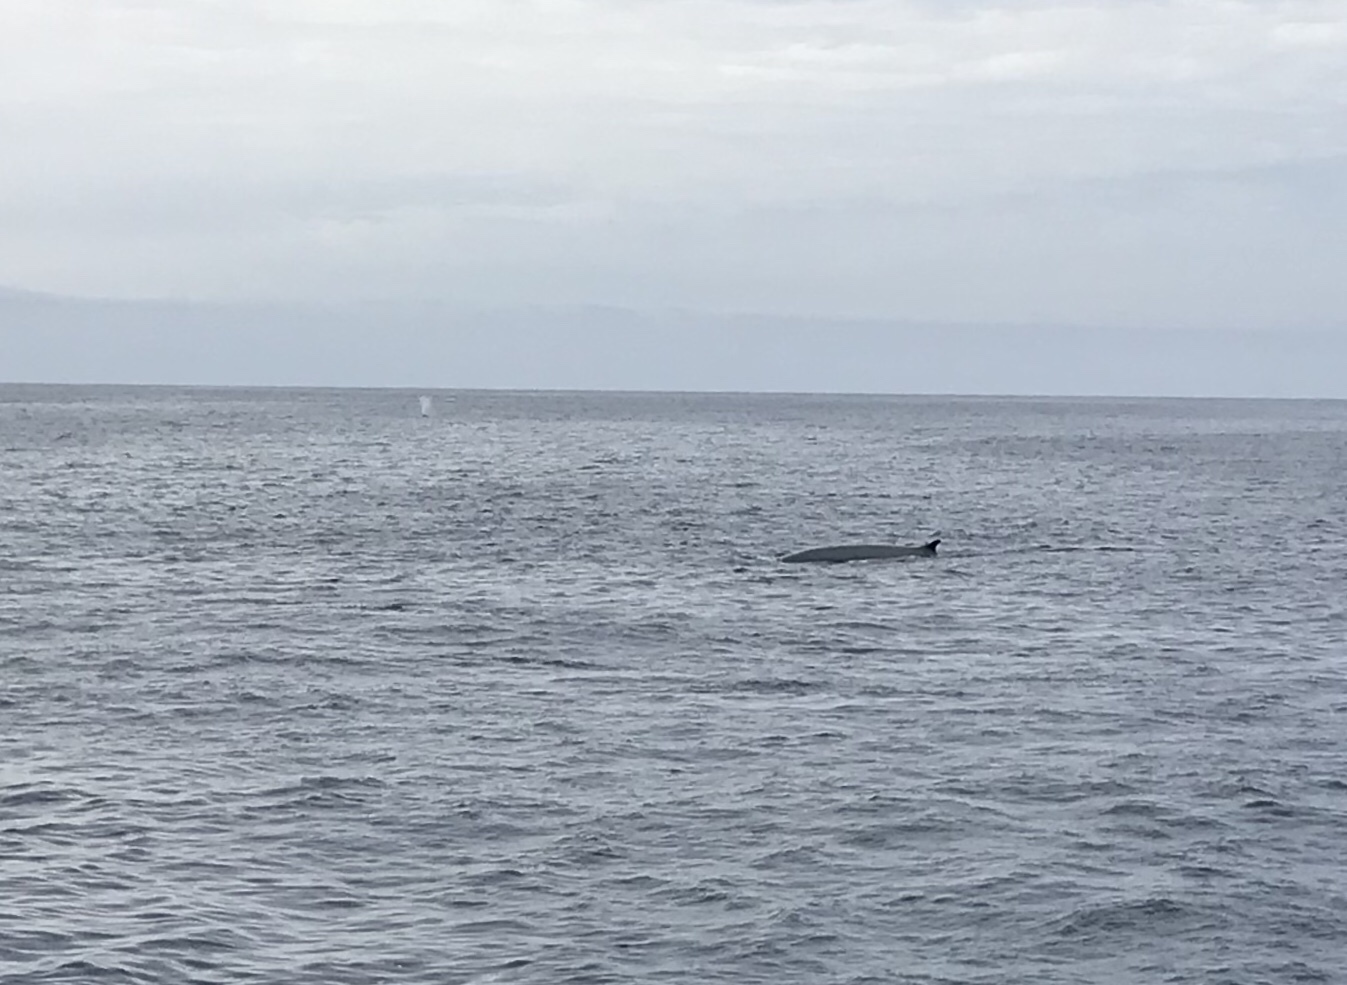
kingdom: Animalia
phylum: Chordata
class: Mammalia
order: Cetacea
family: Balaenopteridae
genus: Balaenoptera
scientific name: Balaenoptera physalus
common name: Fin whale
